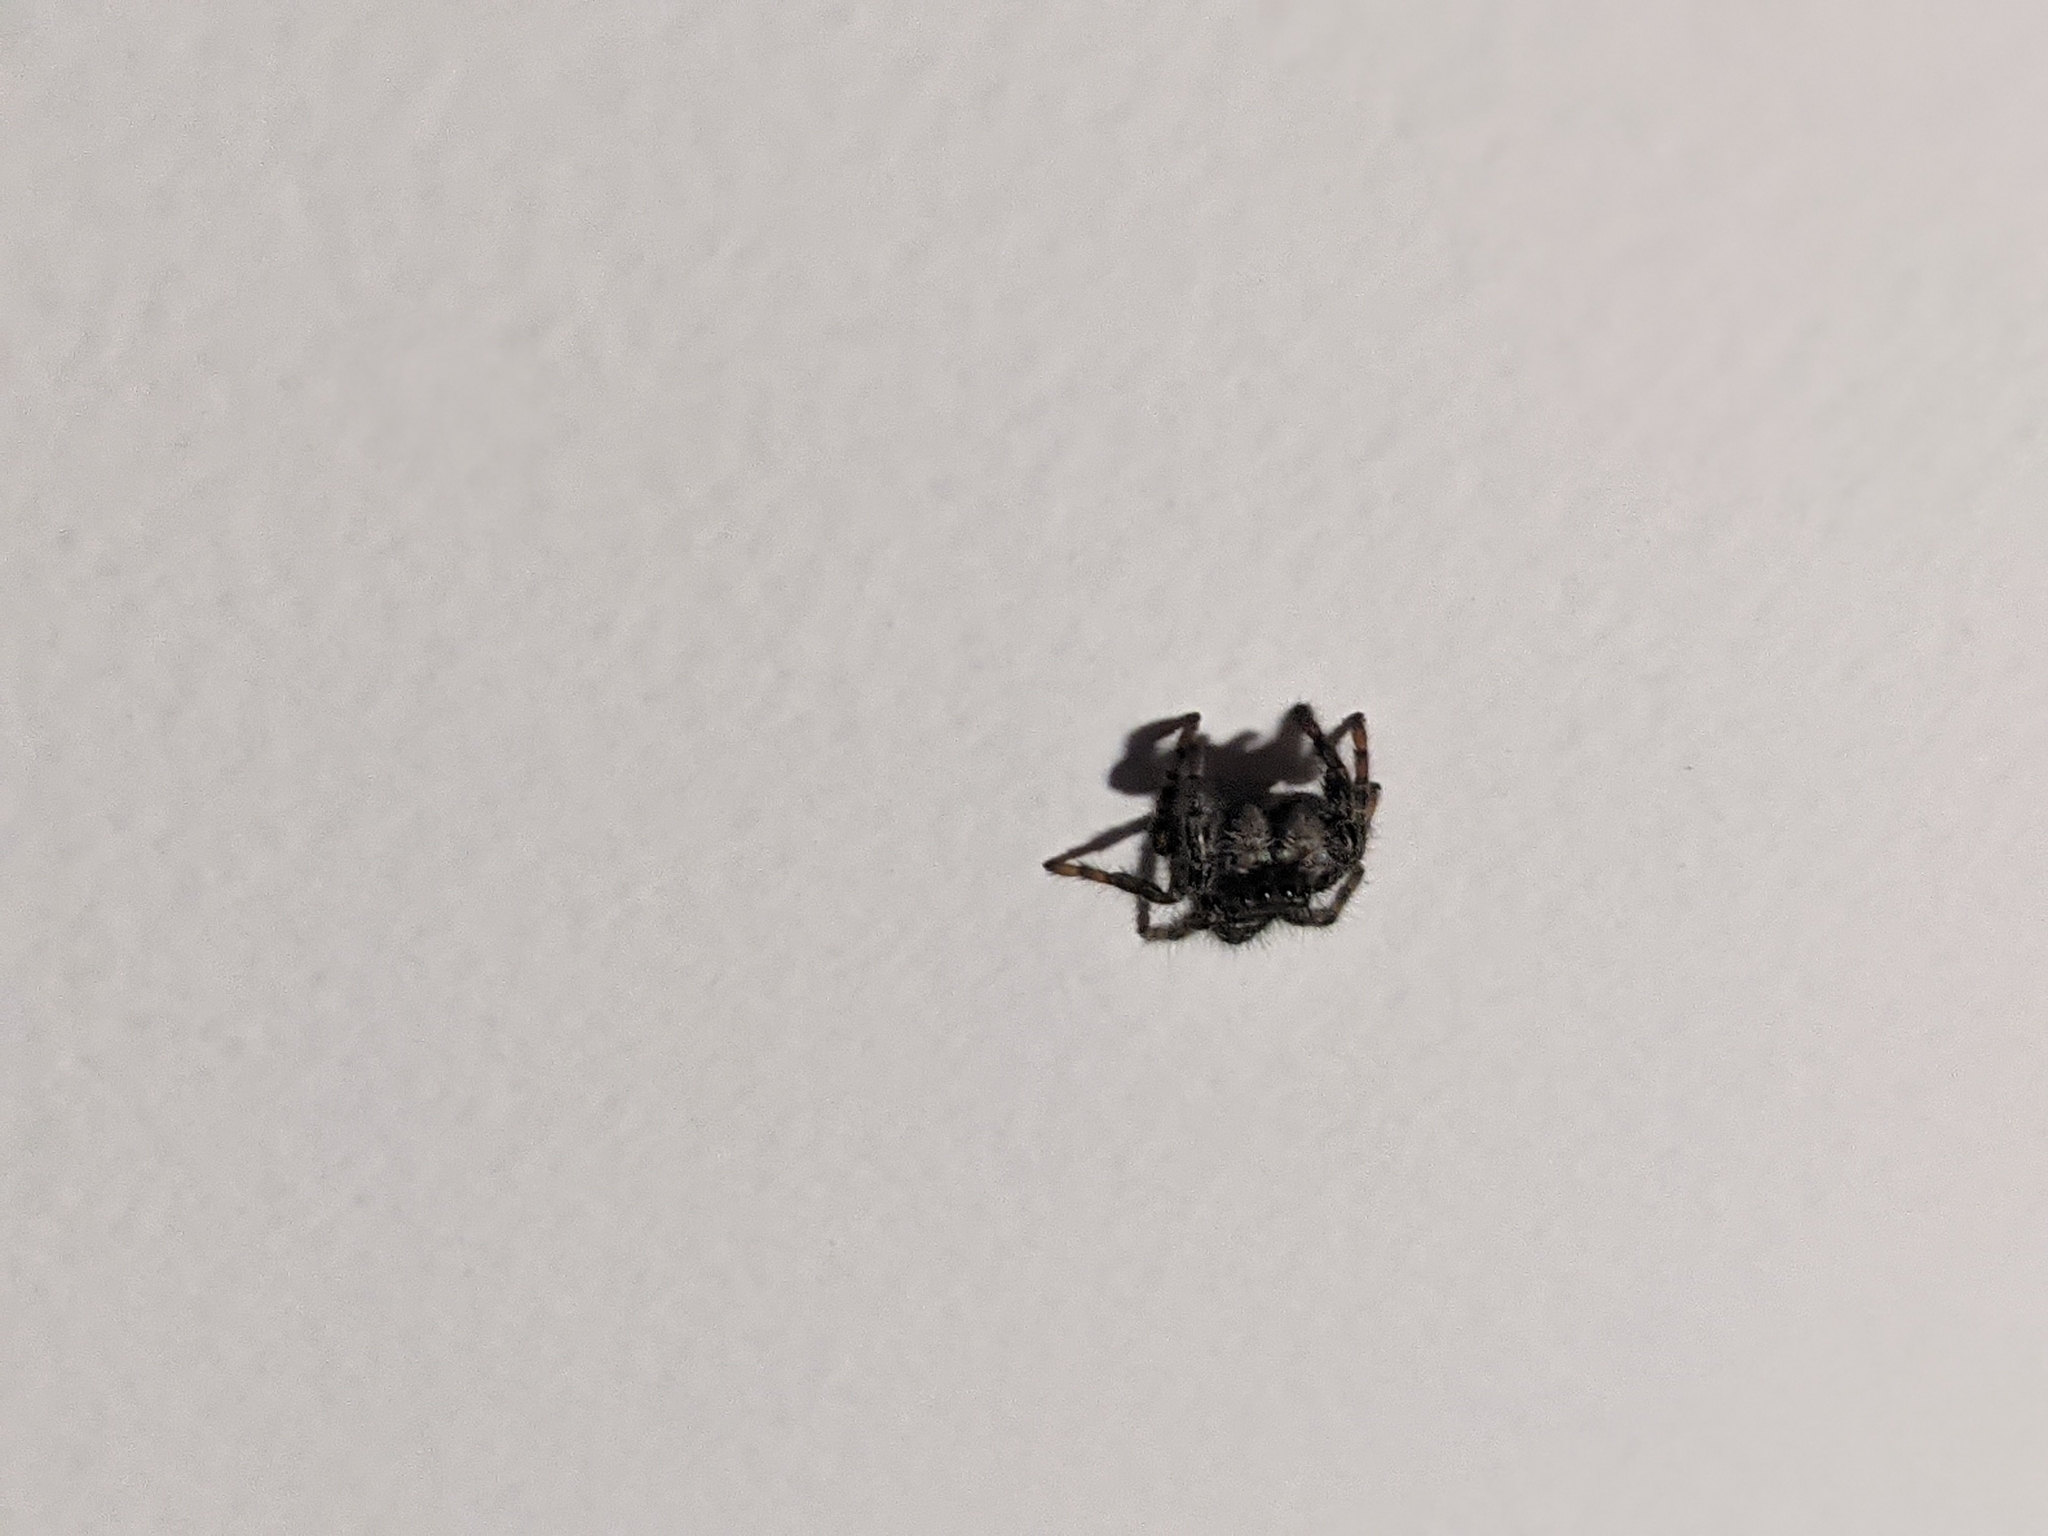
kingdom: Animalia
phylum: Arthropoda
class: Arachnida
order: Araneae
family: Salticidae
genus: Phidippus
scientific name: Phidippus audax
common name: Bold jumper
